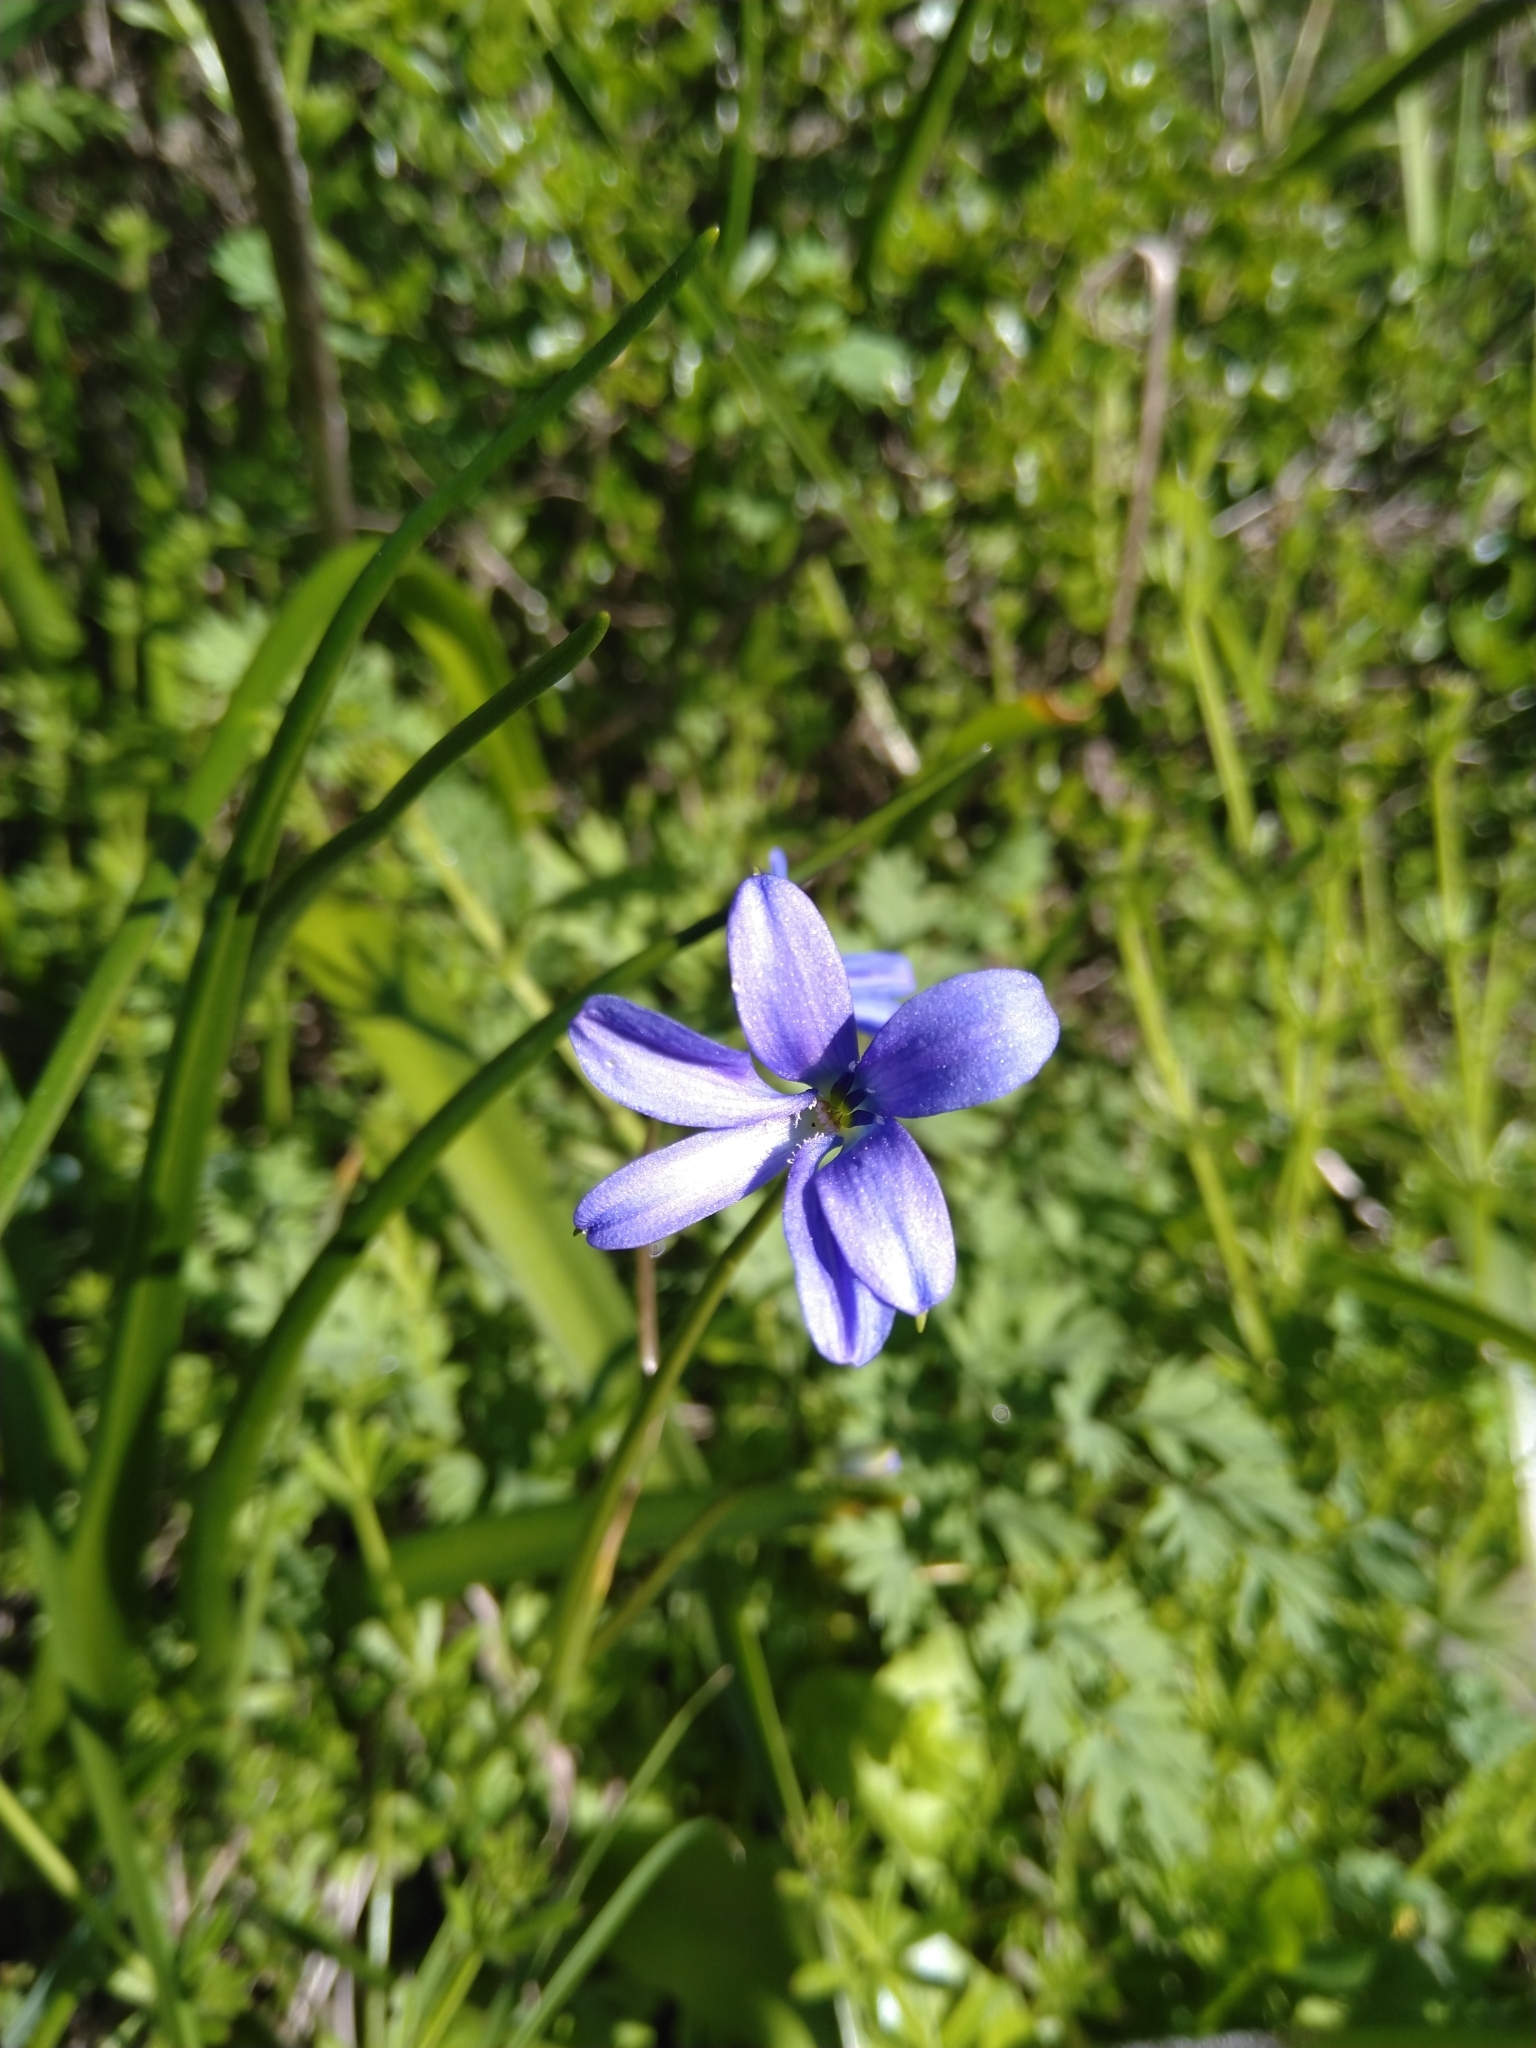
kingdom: Plantae
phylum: Tracheophyta
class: Liliopsida
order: Asparagales
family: Tecophilaeaceae
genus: Tecophilaea
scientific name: Tecophilaea violiflora
